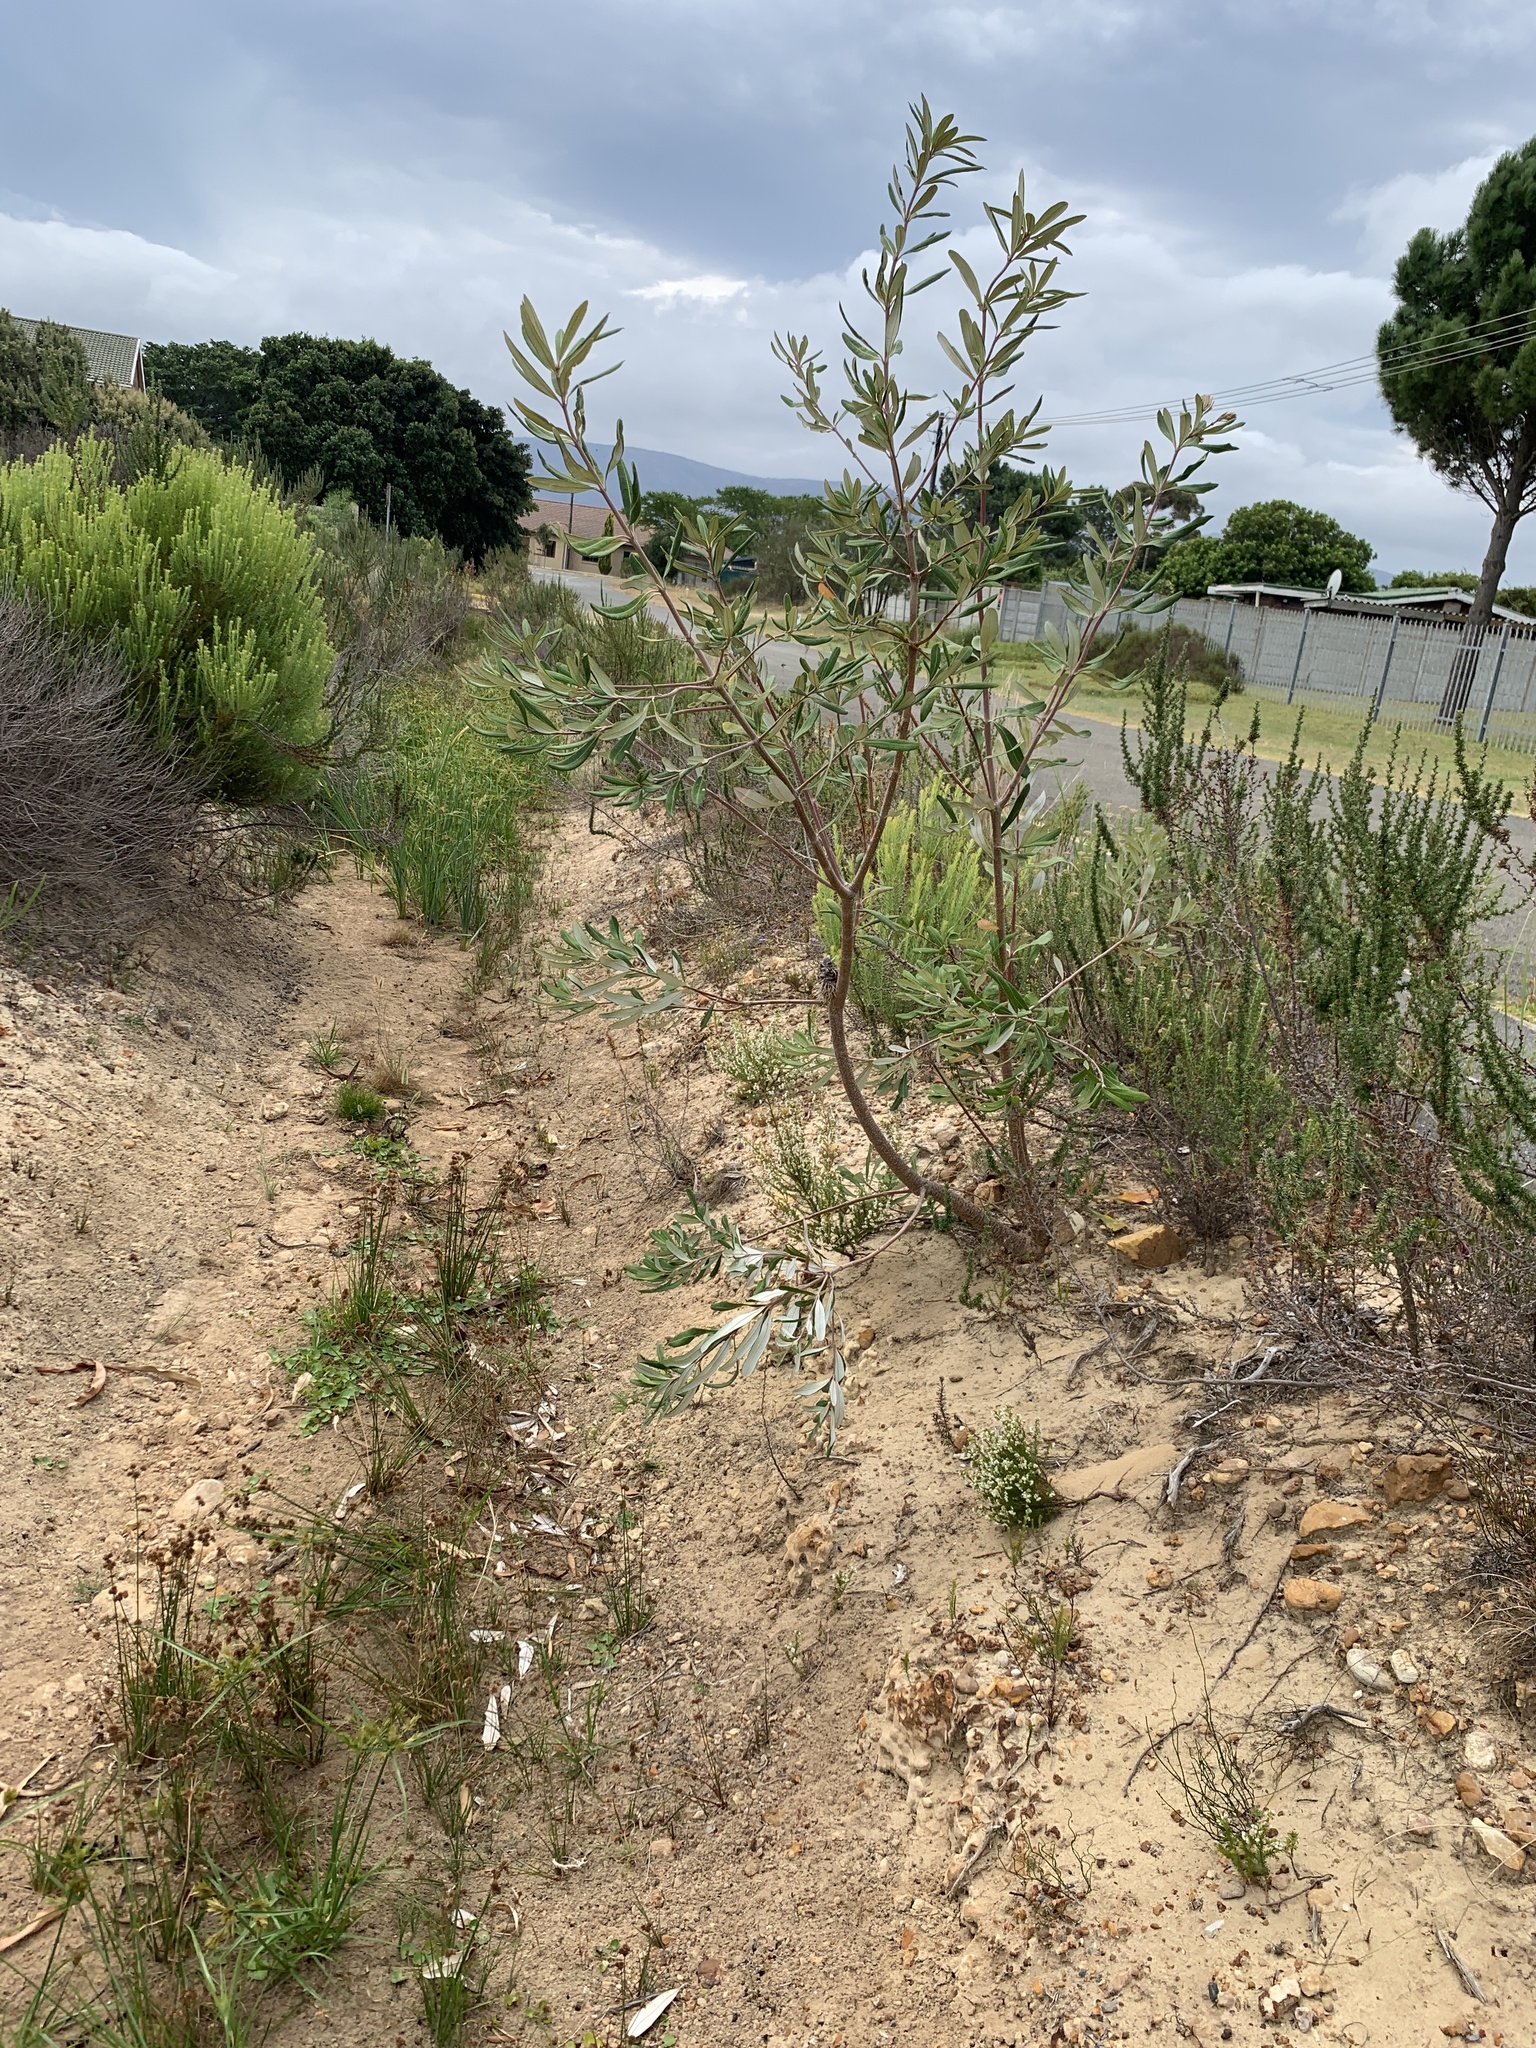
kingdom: Plantae
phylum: Tracheophyta
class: Magnoliopsida
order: Proteales
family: Proteaceae
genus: Banksia
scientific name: Banksia integrifolia
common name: White-honeysuckle
